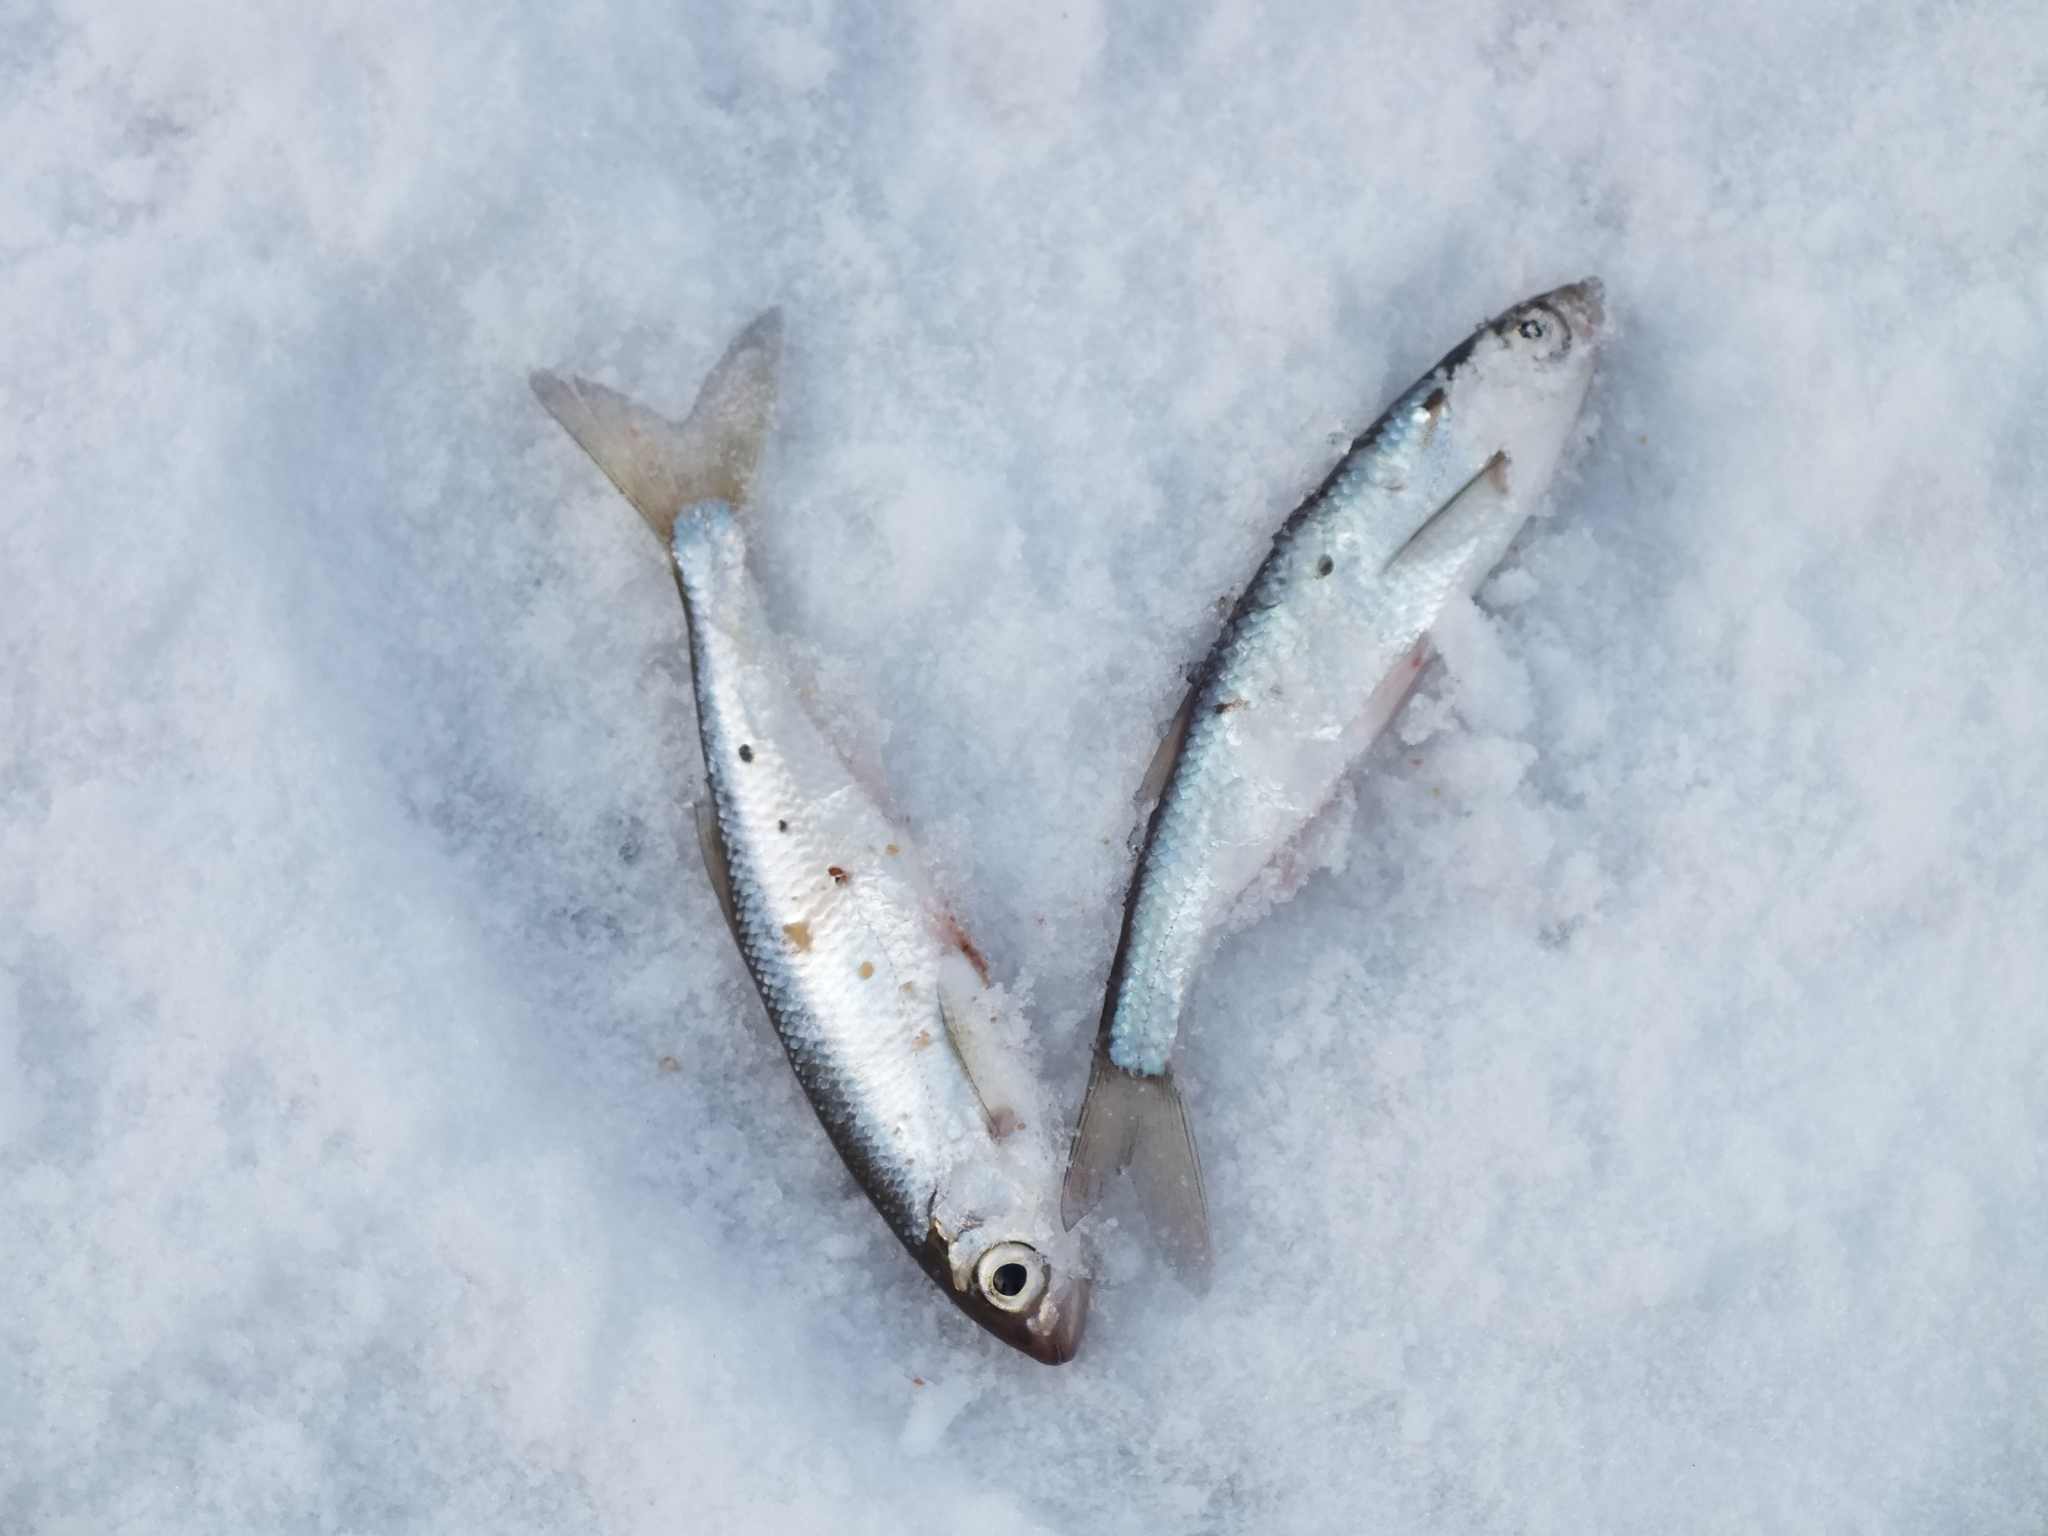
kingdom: Animalia
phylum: Chordata
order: Cypriniformes
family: Cyprinidae
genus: Alburnus
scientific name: Alburnus alburnus
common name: Bleak
